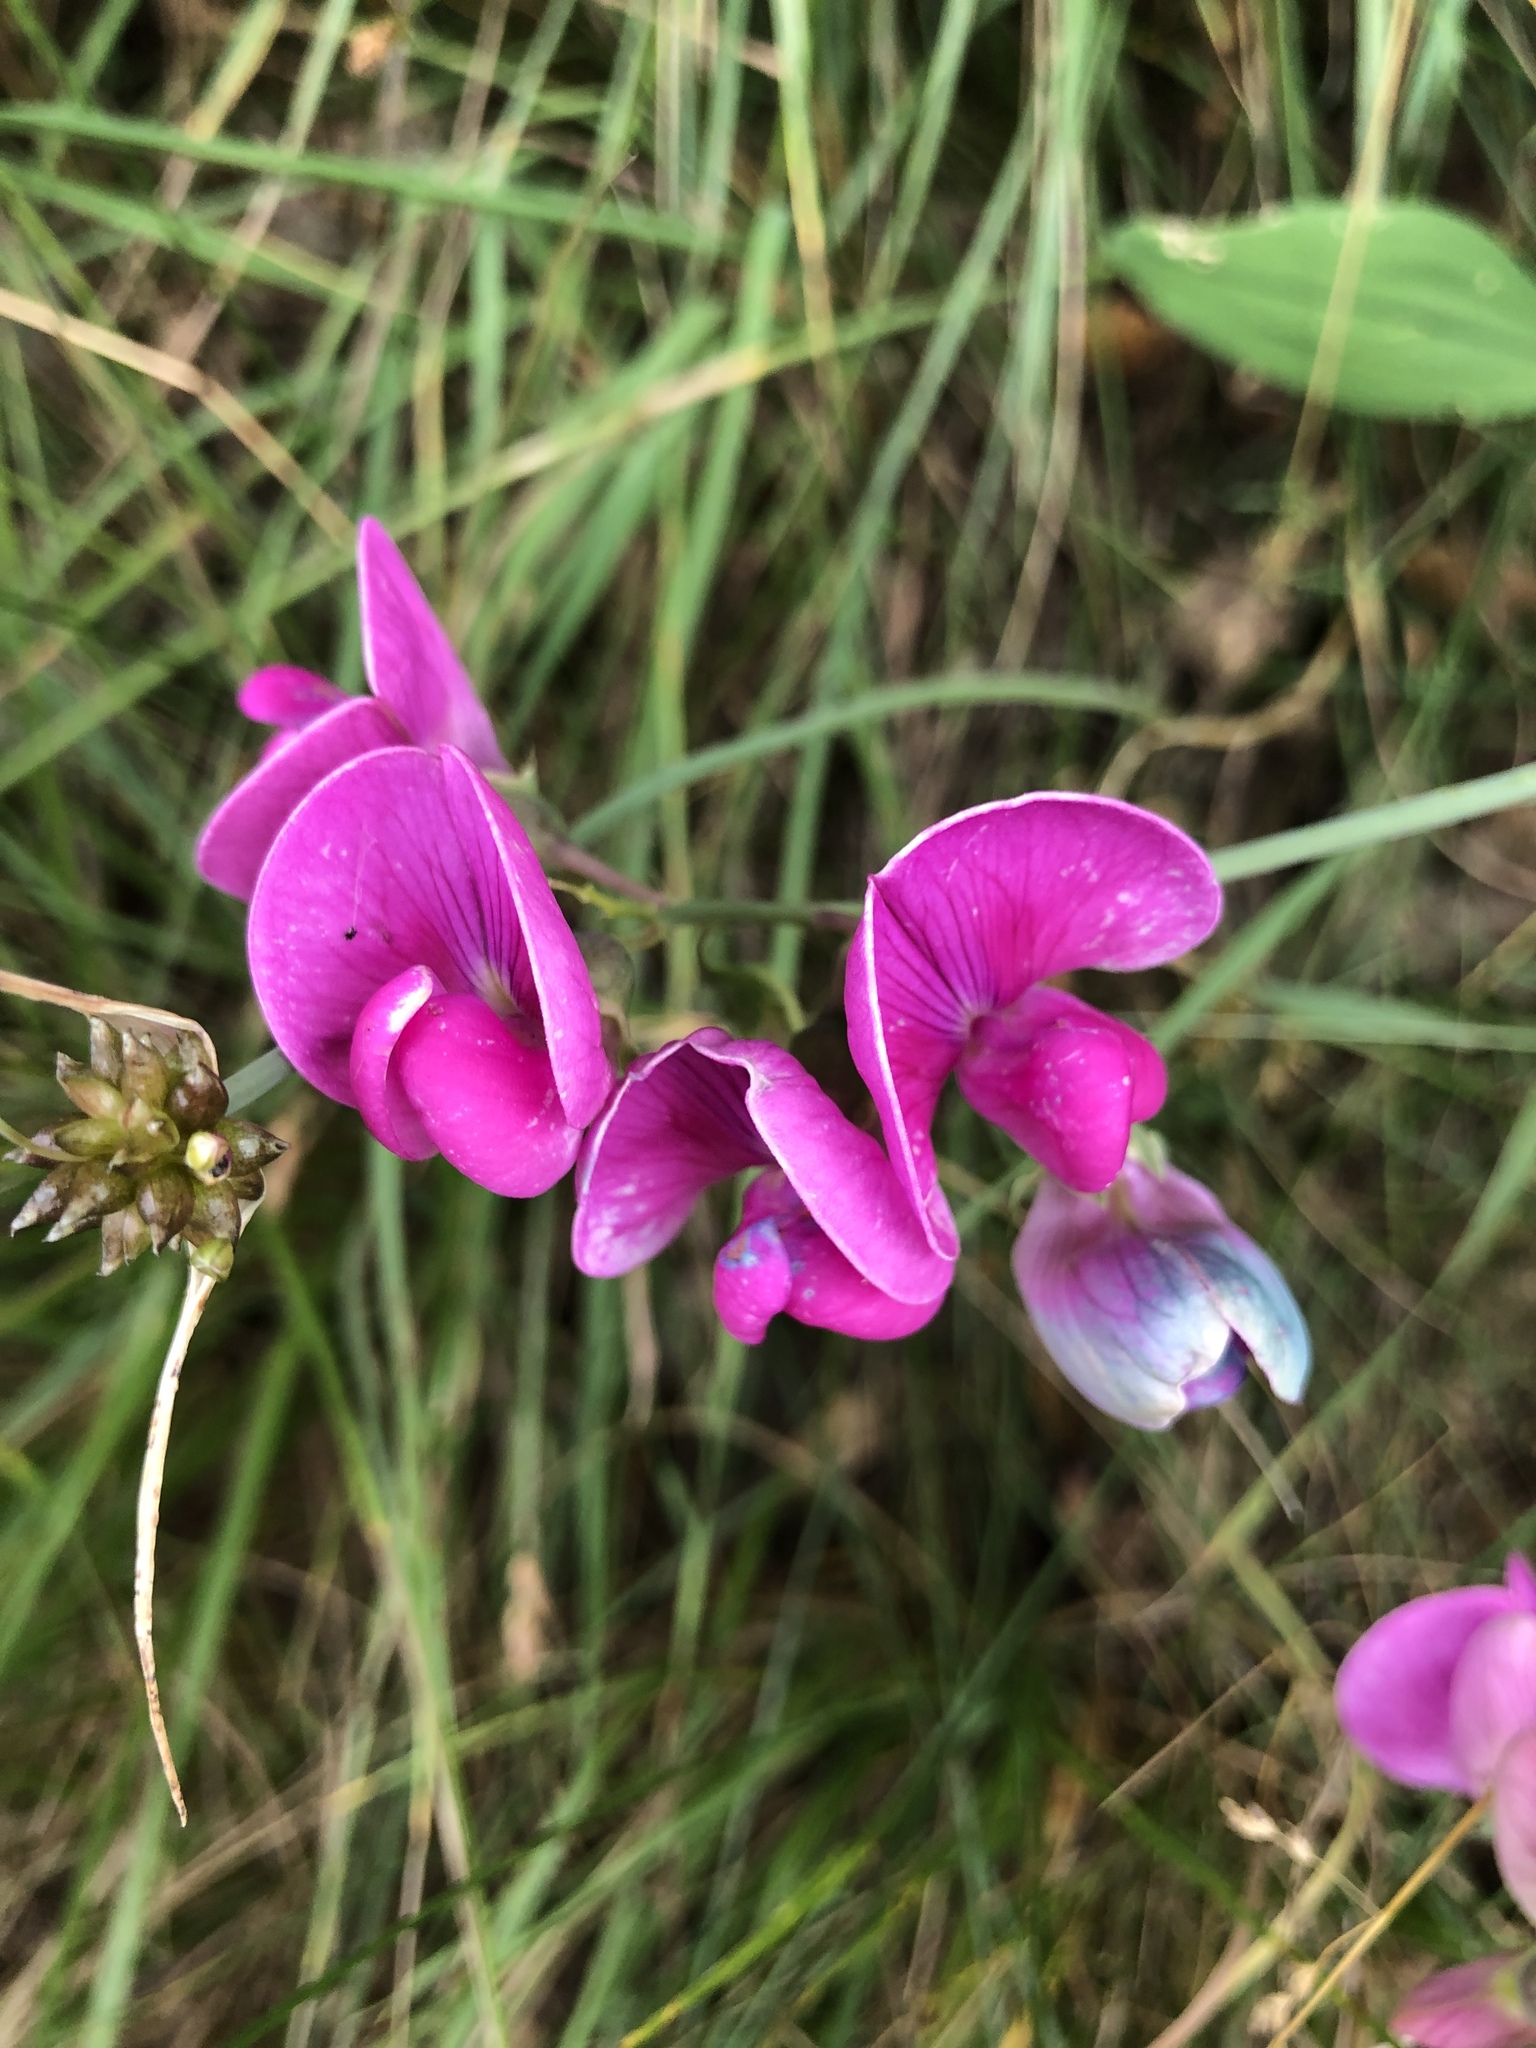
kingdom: Plantae
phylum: Tracheophyta
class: Magnoliopsida
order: Fabales
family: Fabaceae
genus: Lathyrus
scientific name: Lathyrus latifolius
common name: Perennial pea
